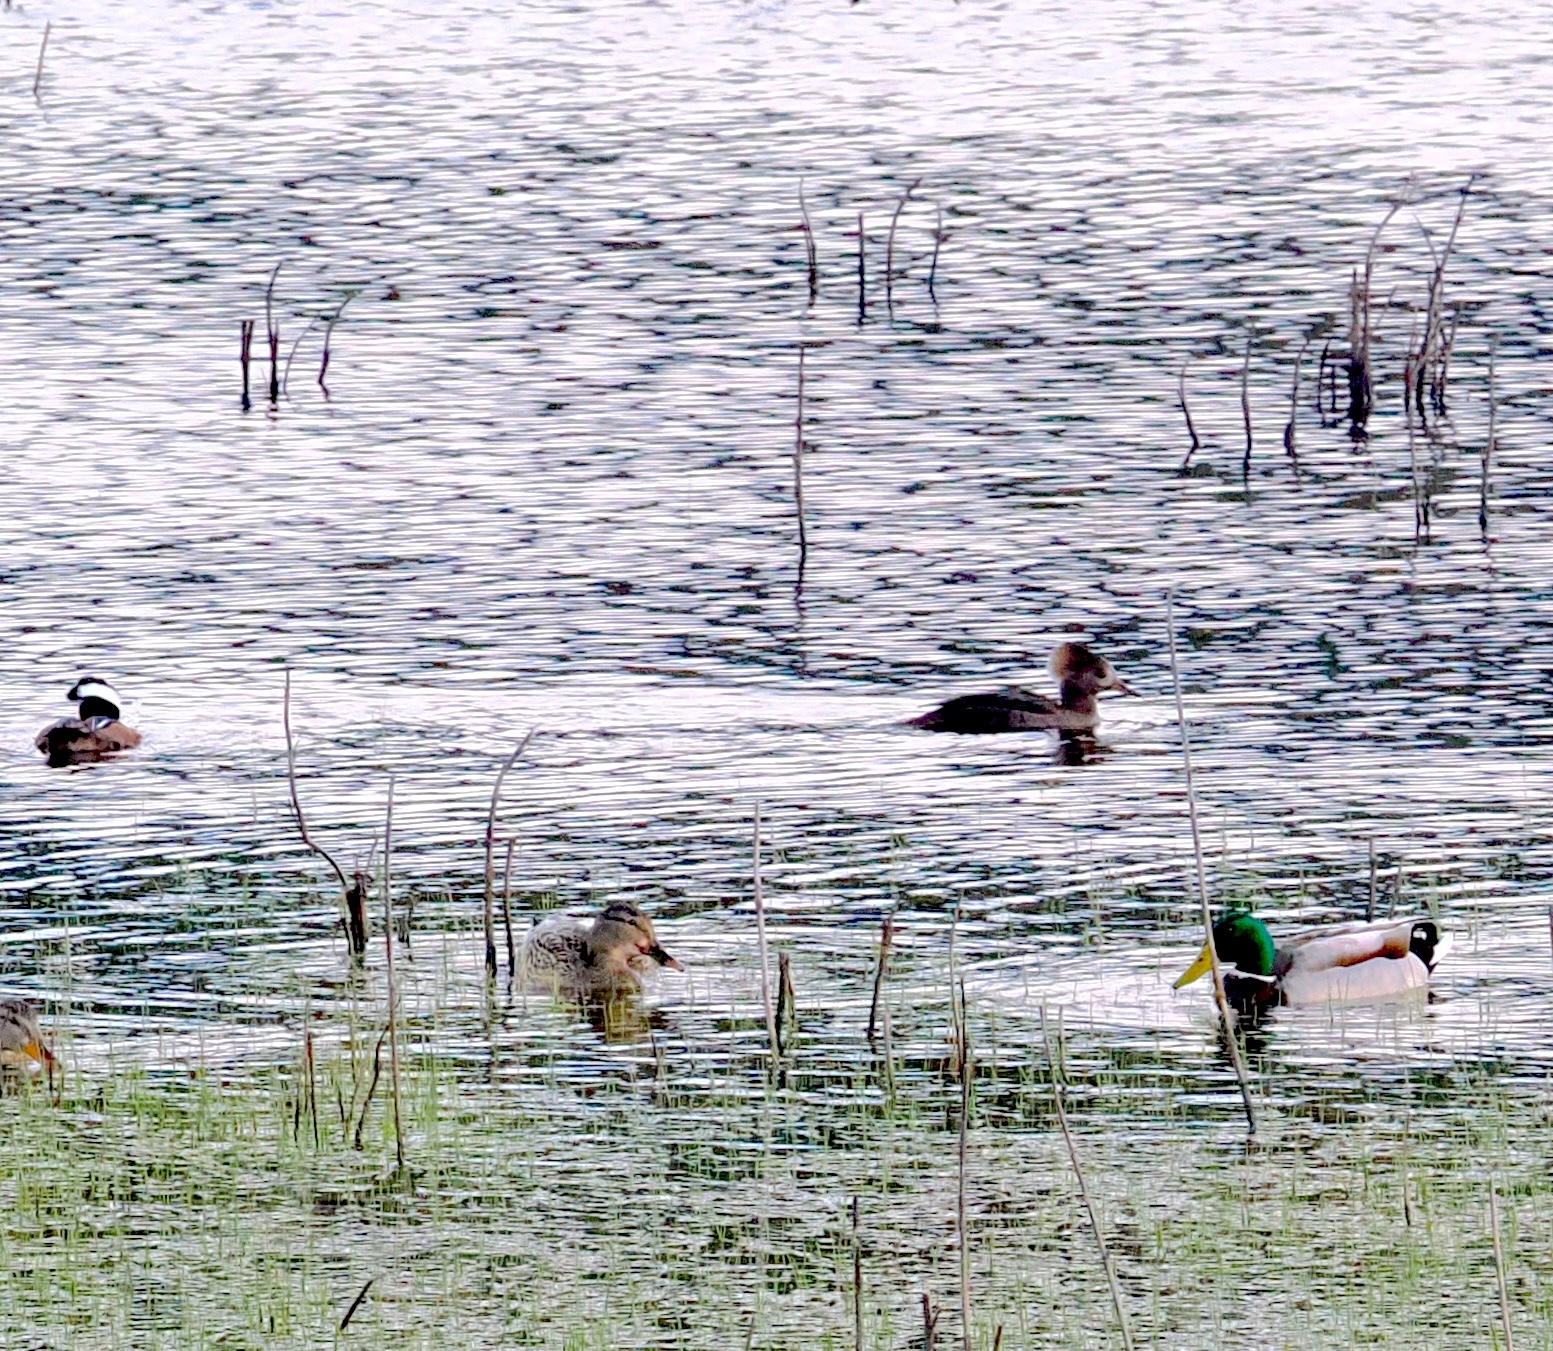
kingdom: Animalia
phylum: Chordata
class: Aves
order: Anseriformes
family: Anatidae
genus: Lophodytes
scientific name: Lophodytes cucullatus
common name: Hooded merganser
